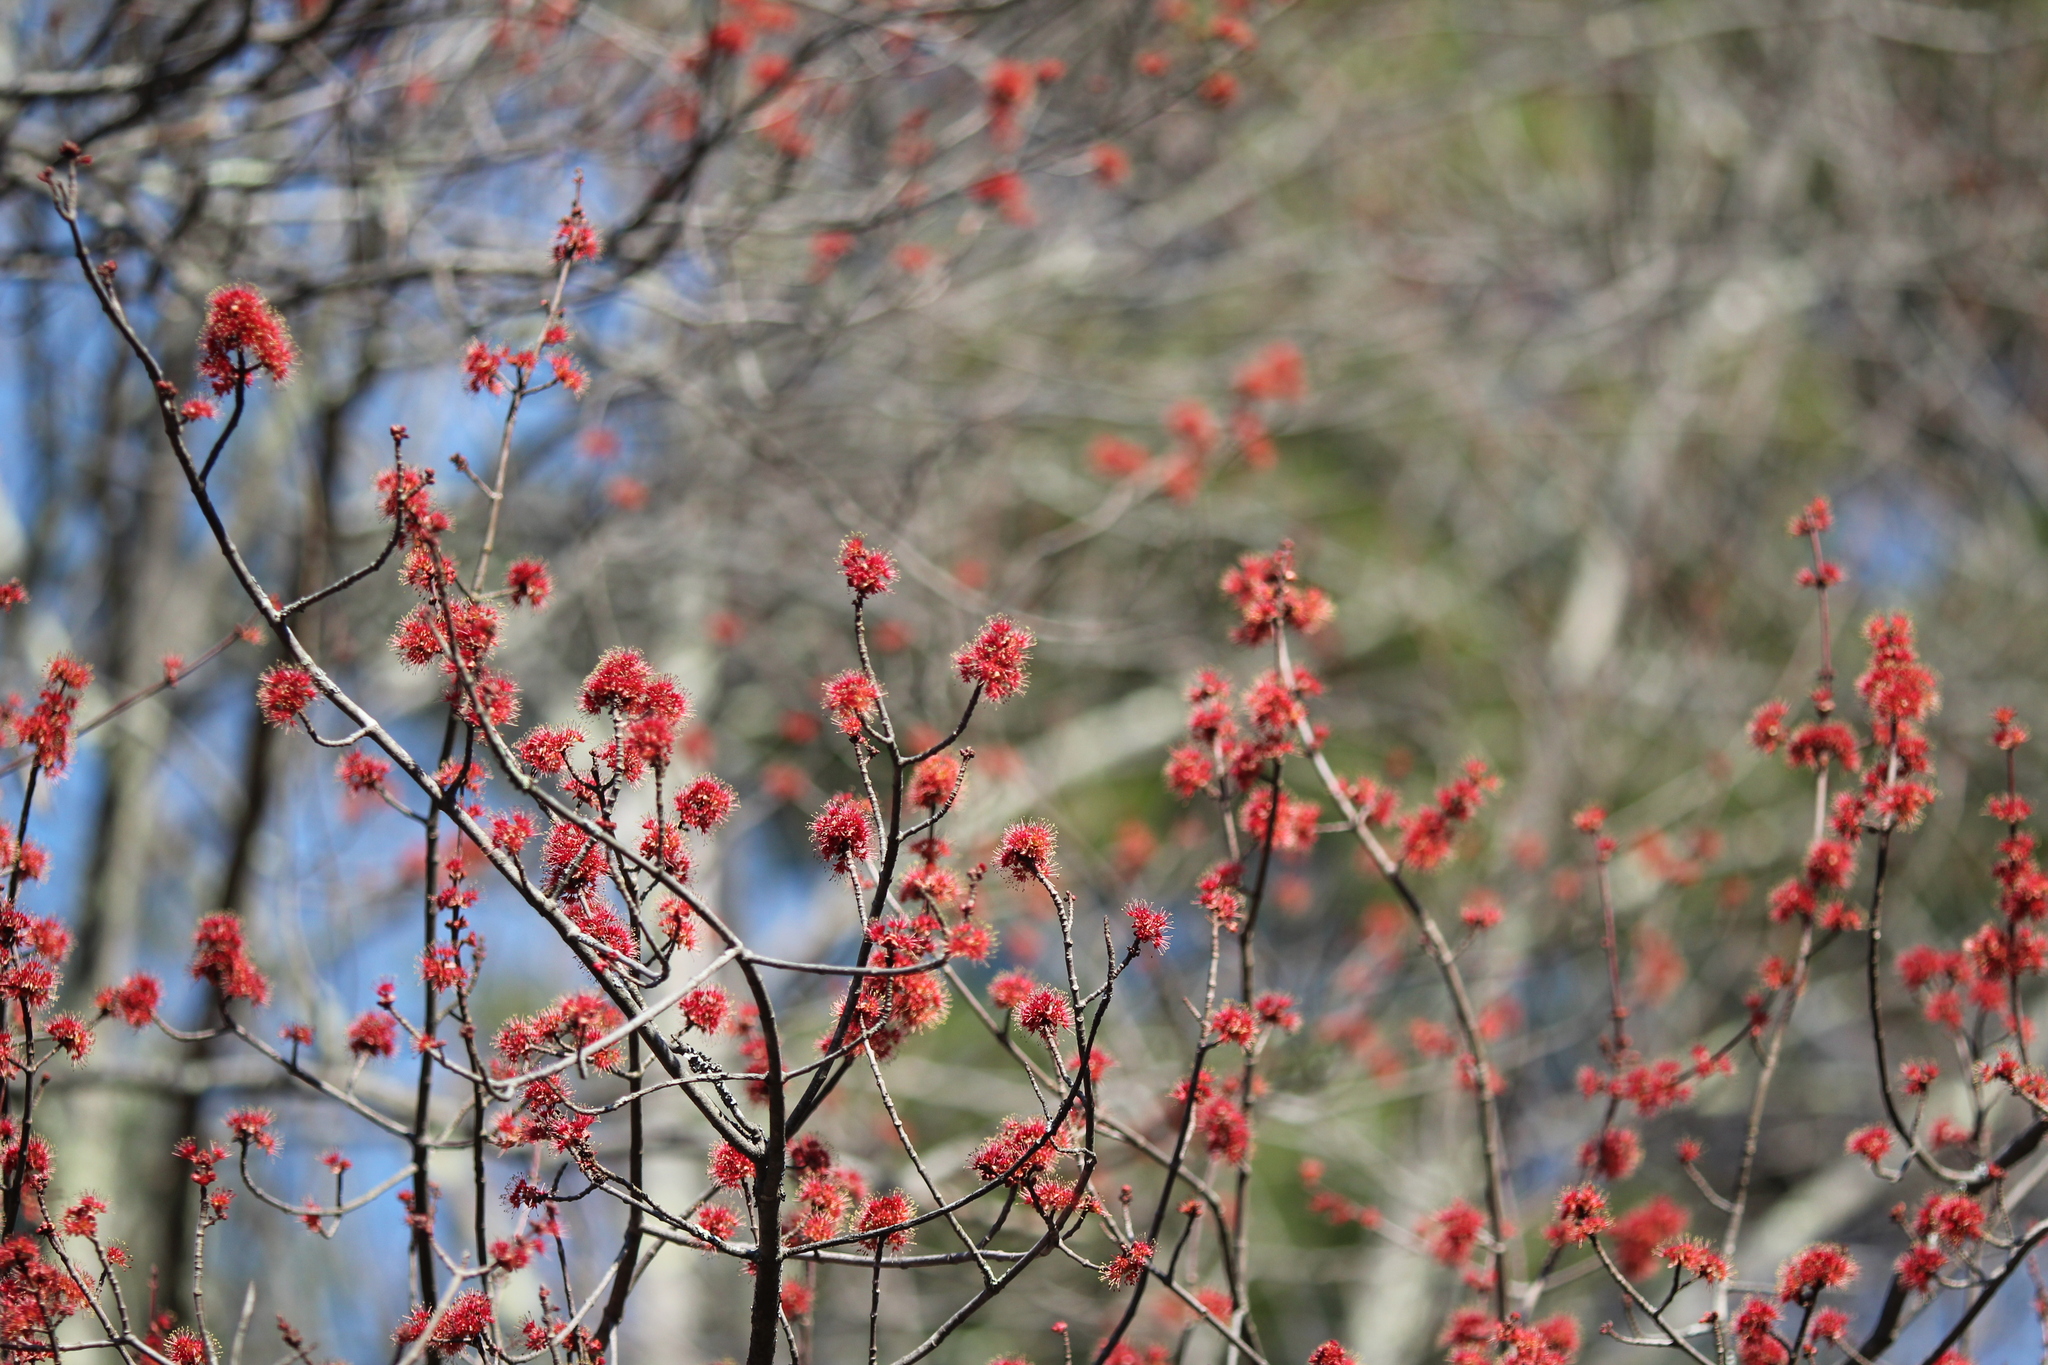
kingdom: Plantae
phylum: Tracheophyta
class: Magnoliopsida
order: Sapindales
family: Sapindaceae
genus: Acer
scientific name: Acer rubrum
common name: Red maple
